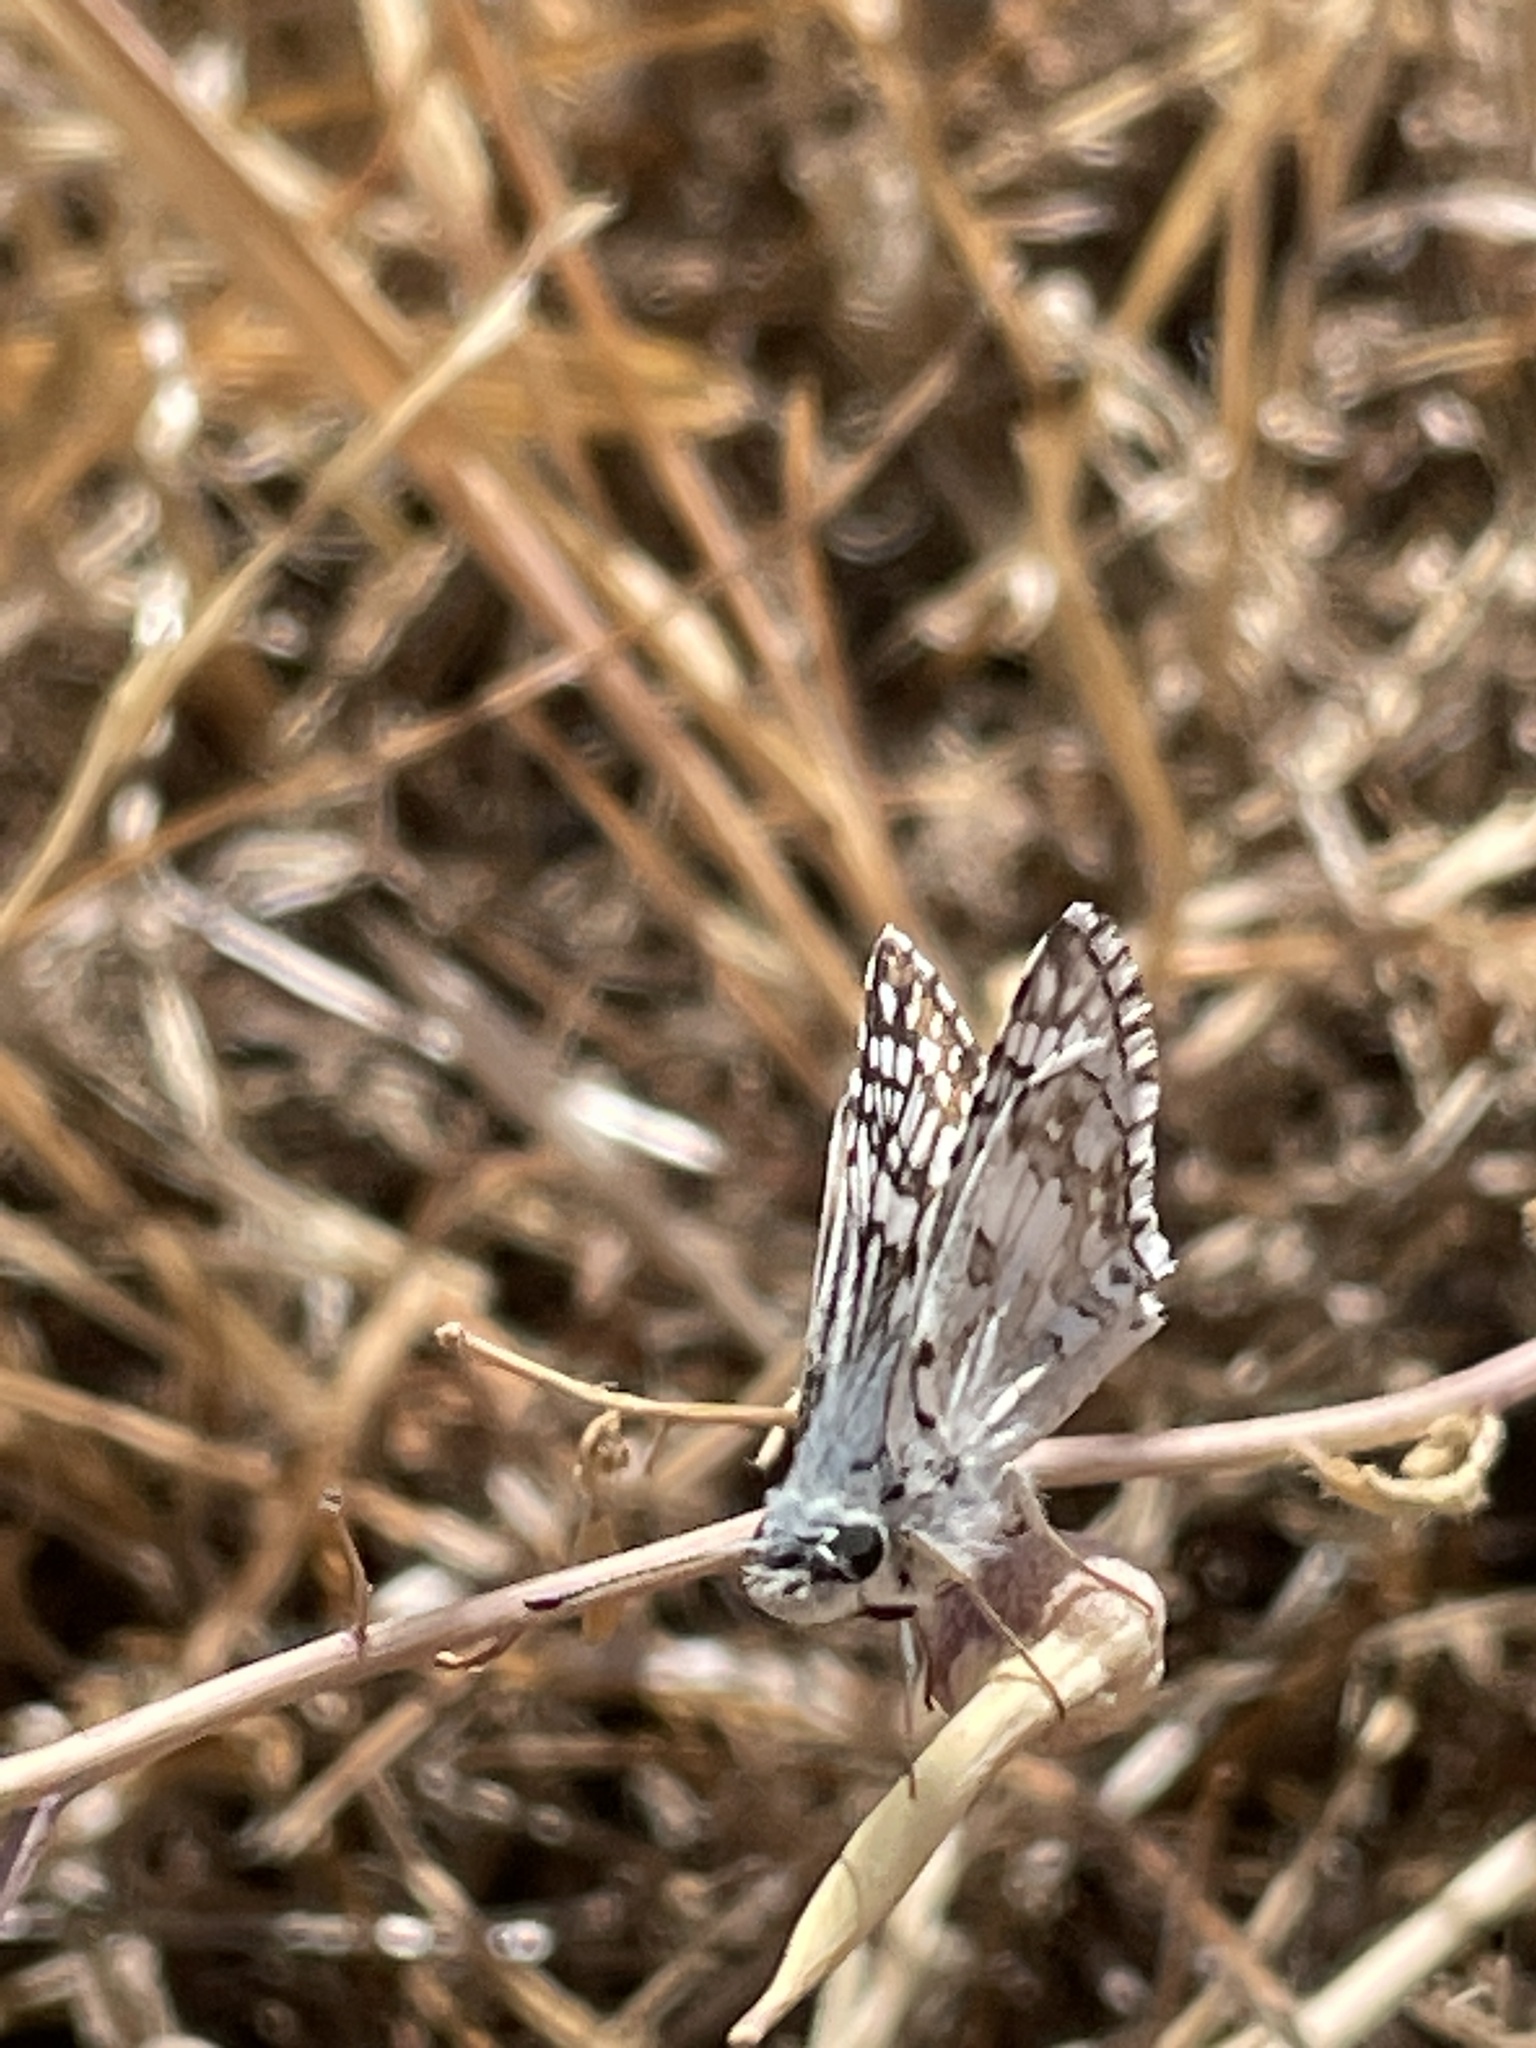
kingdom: Animalia
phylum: Arthropoda
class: Insecta
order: Lepidoptera
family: Hesperiidae
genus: Burnsius
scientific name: Burnsius communis
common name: Common checkered-skipper
